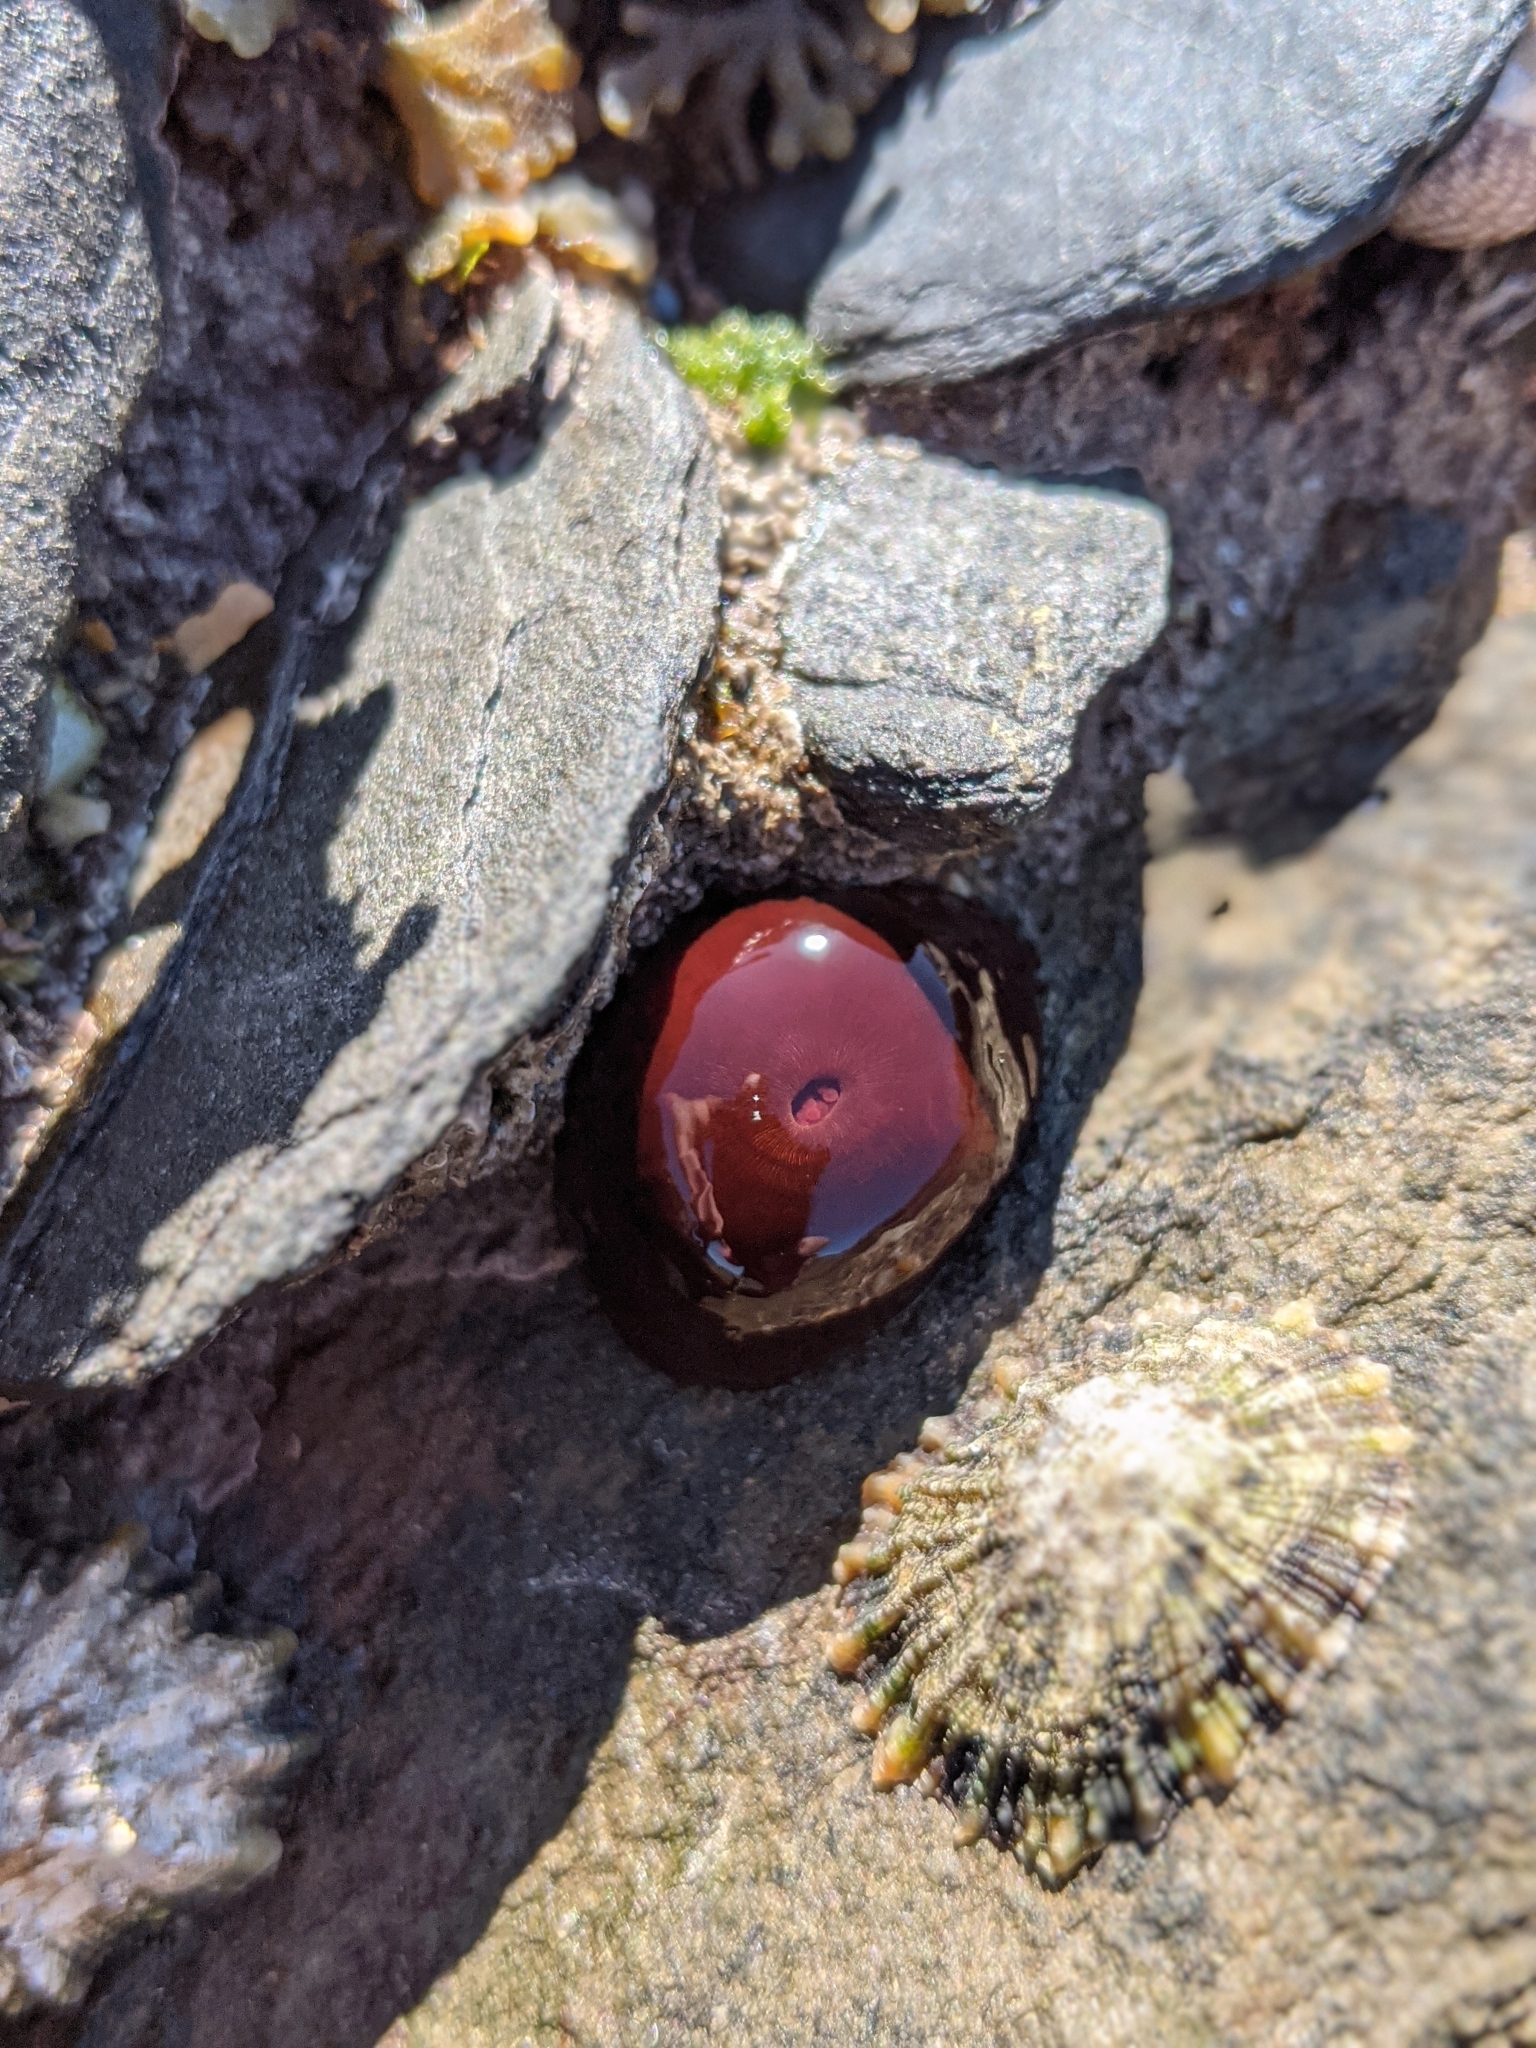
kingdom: Animalia
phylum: Cnidaria
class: Anthozoa
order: Actiniaria
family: Actiniidae
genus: Actinia
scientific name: Actinia equina
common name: Beadlet anemone
